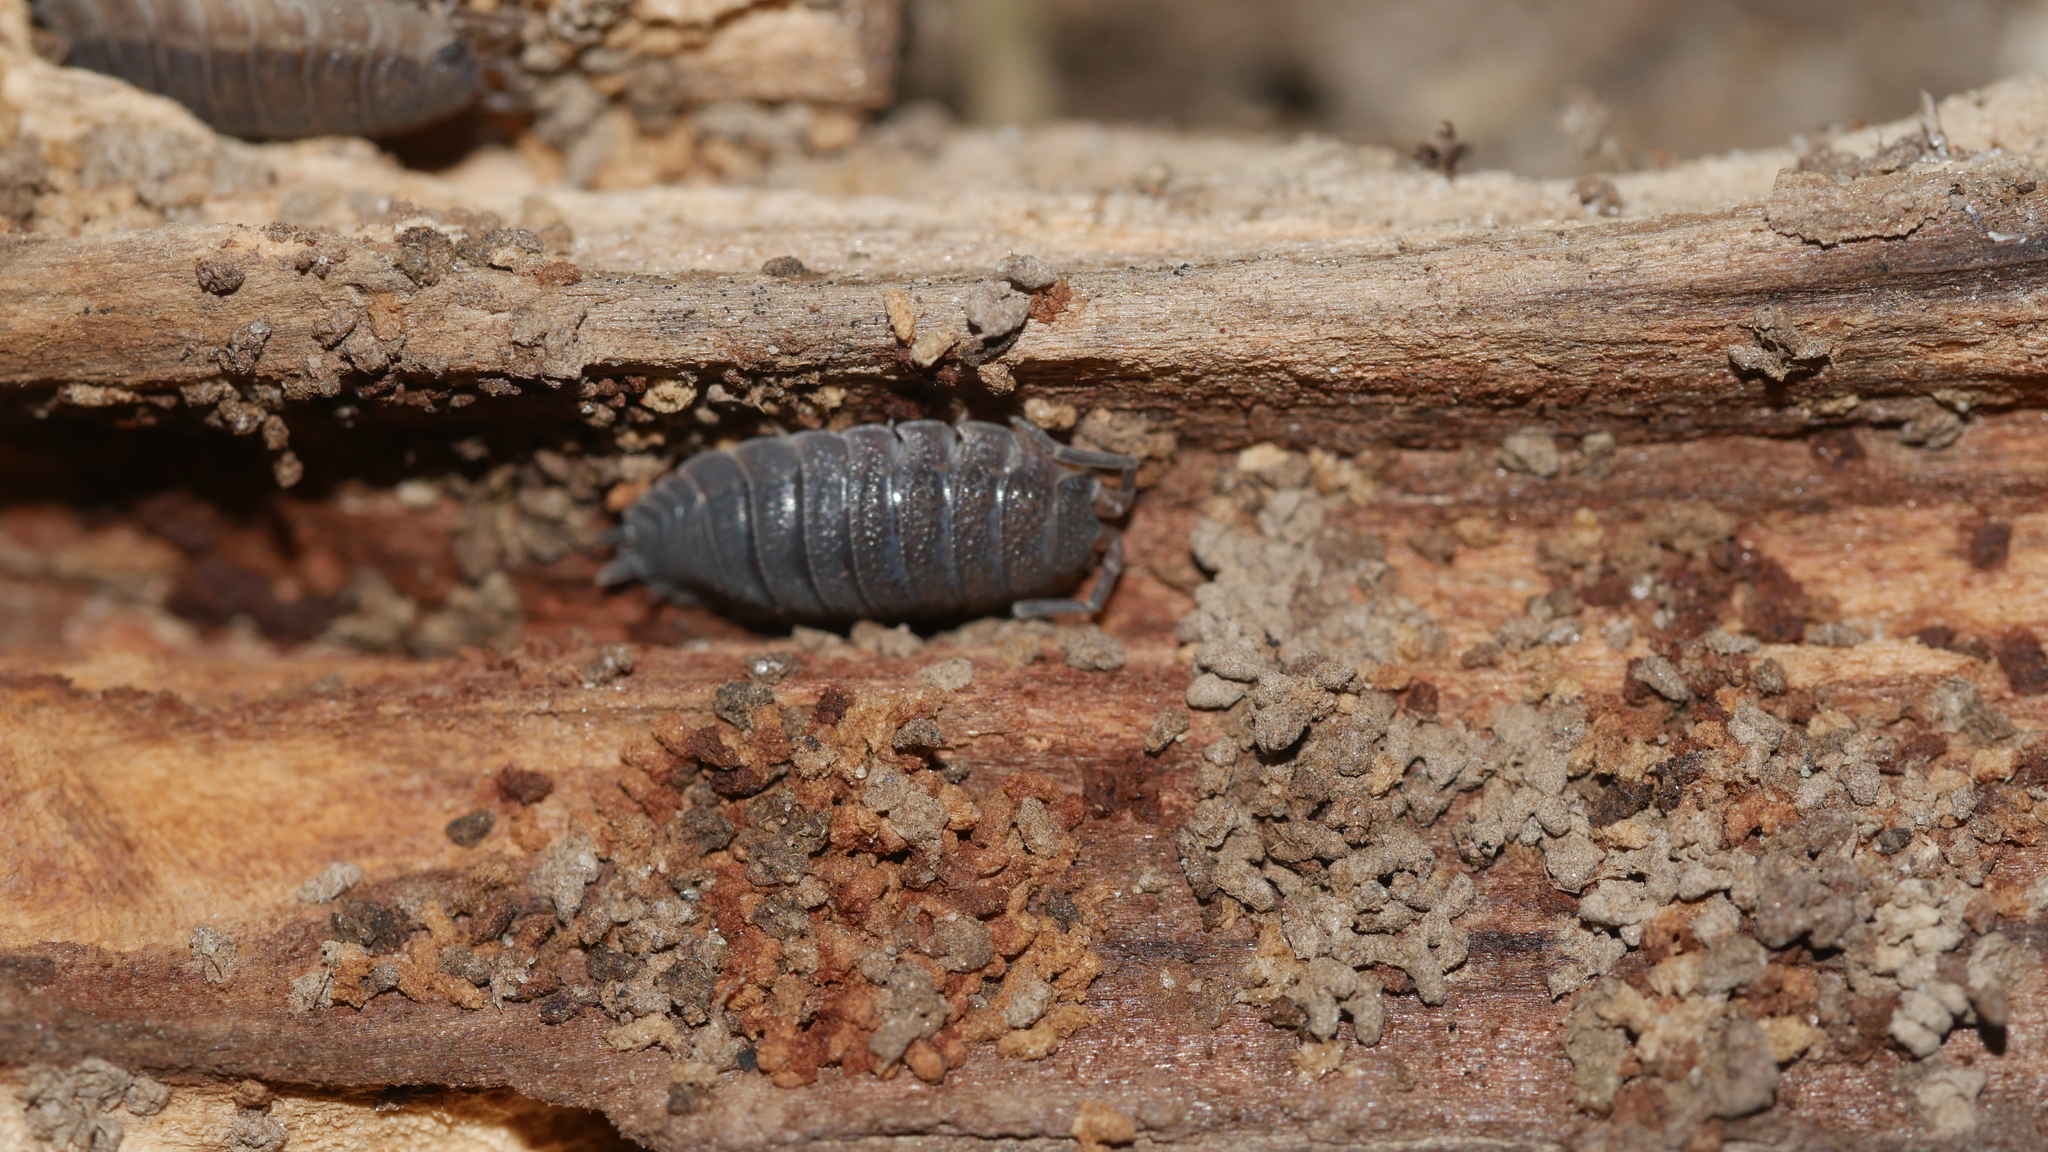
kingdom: Animalia
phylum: Arthropoda
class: Malacostraca
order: Isopoda
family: Porcellionidae
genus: Porcellio
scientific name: Porcellio scaber
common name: Common rough woodlouse
